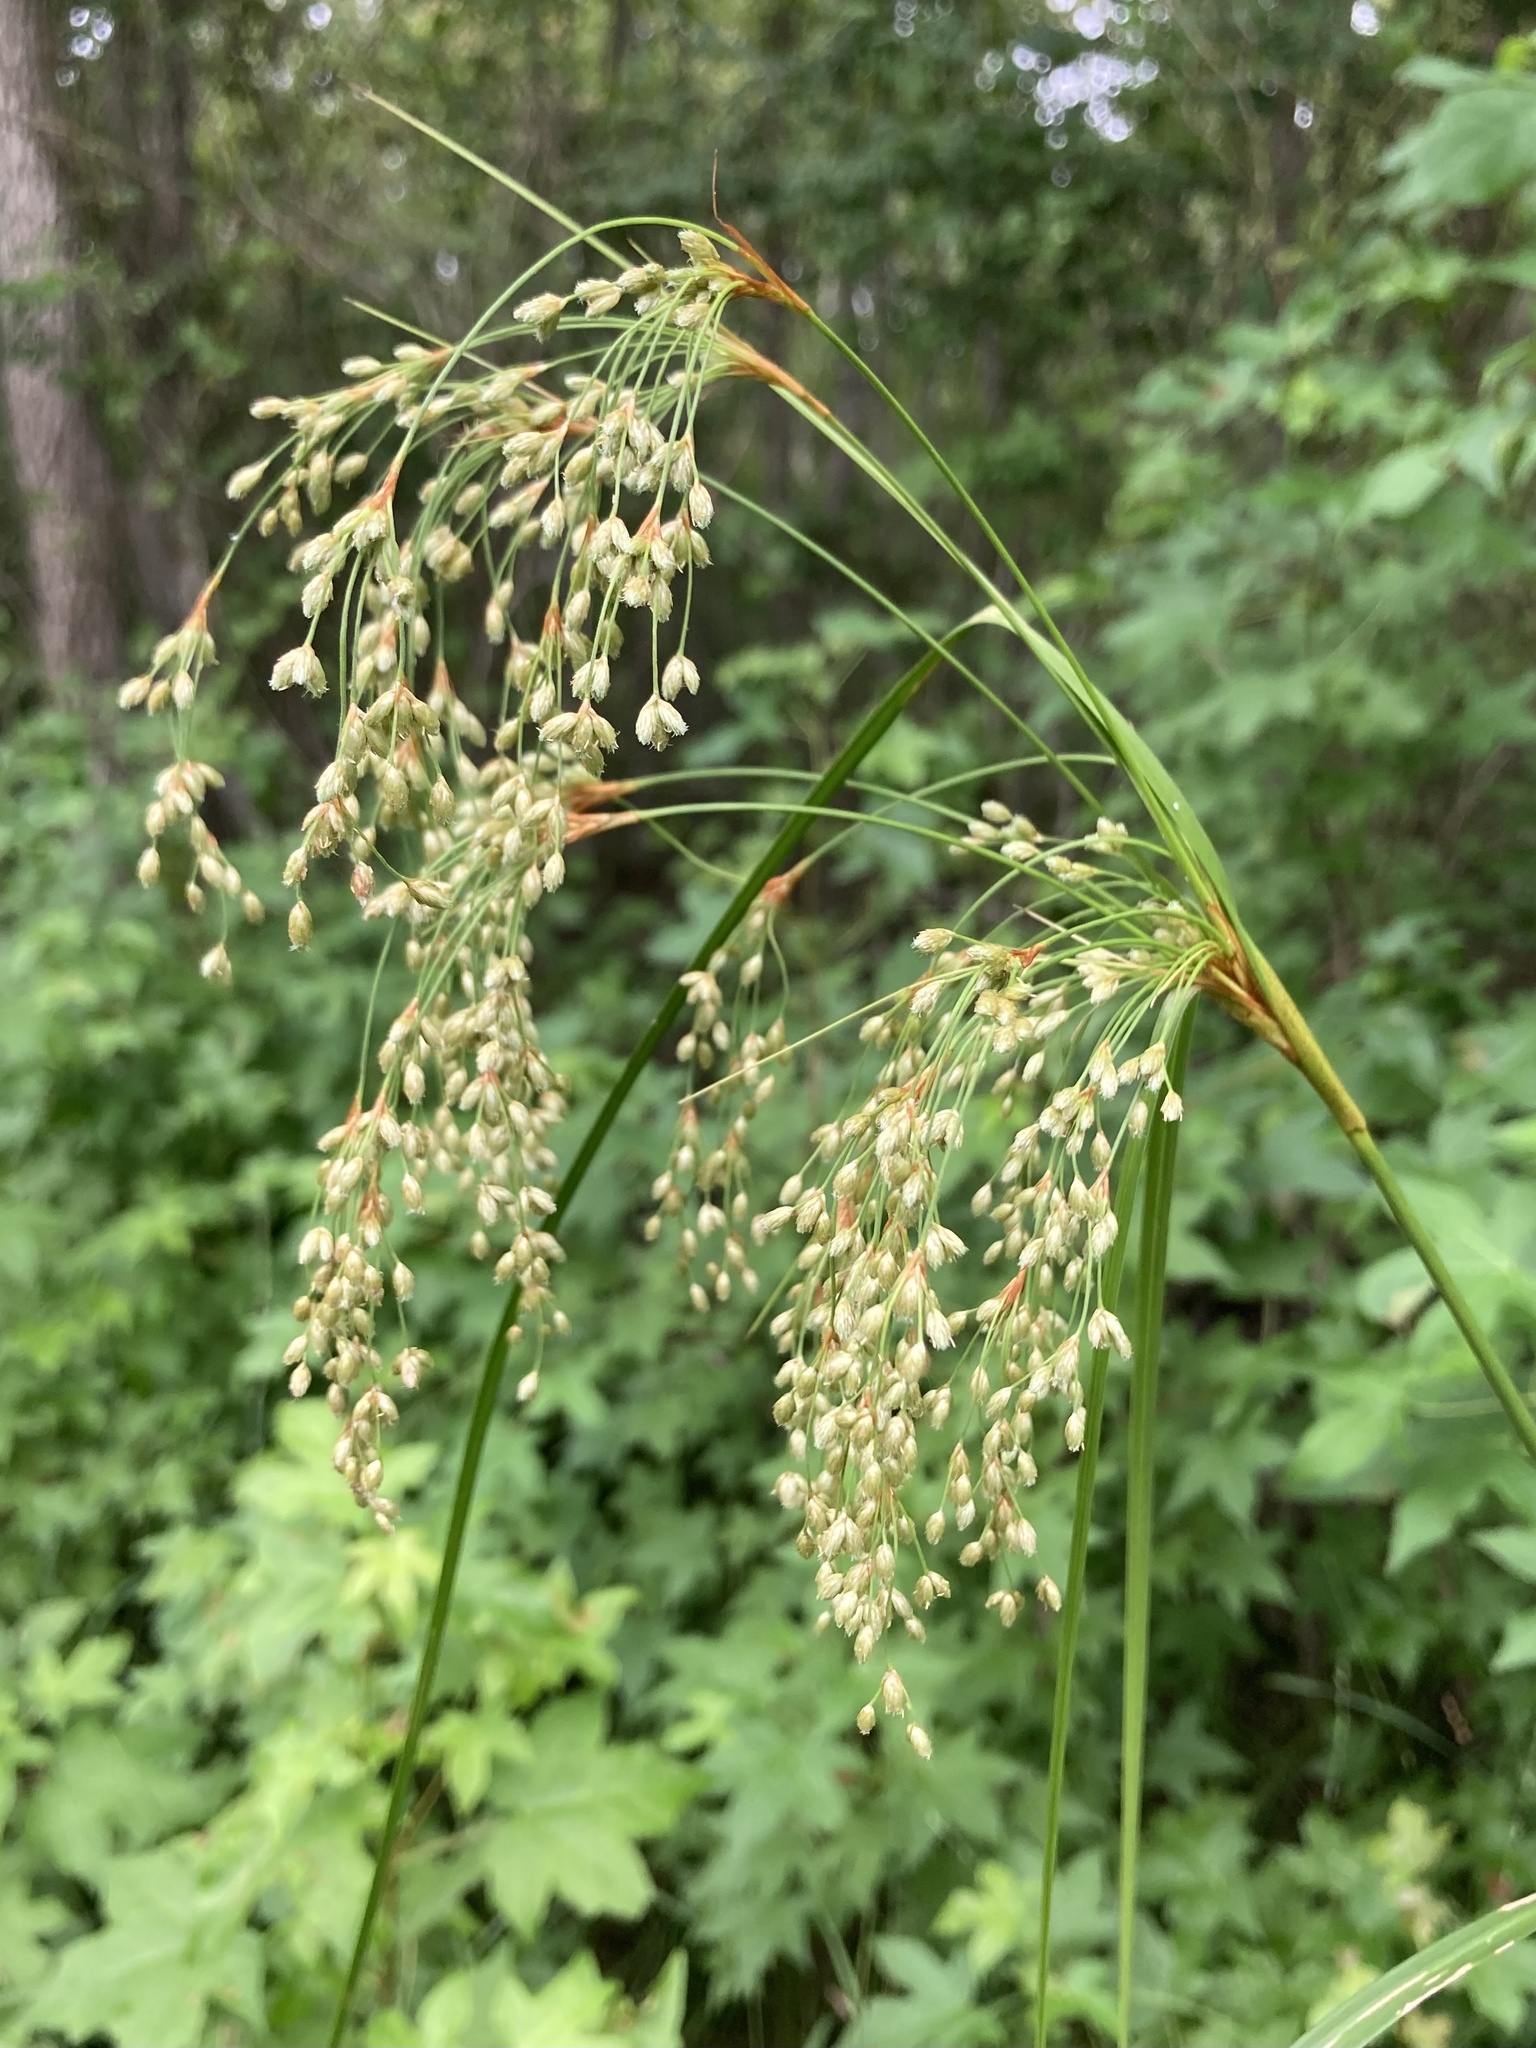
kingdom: Plantae
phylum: Tracheophyta
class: Liliopsida
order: Poales
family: Cyperaceae
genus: Scirpus
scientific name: Scirpus cyperinus
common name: Black-sheathed bulrush
